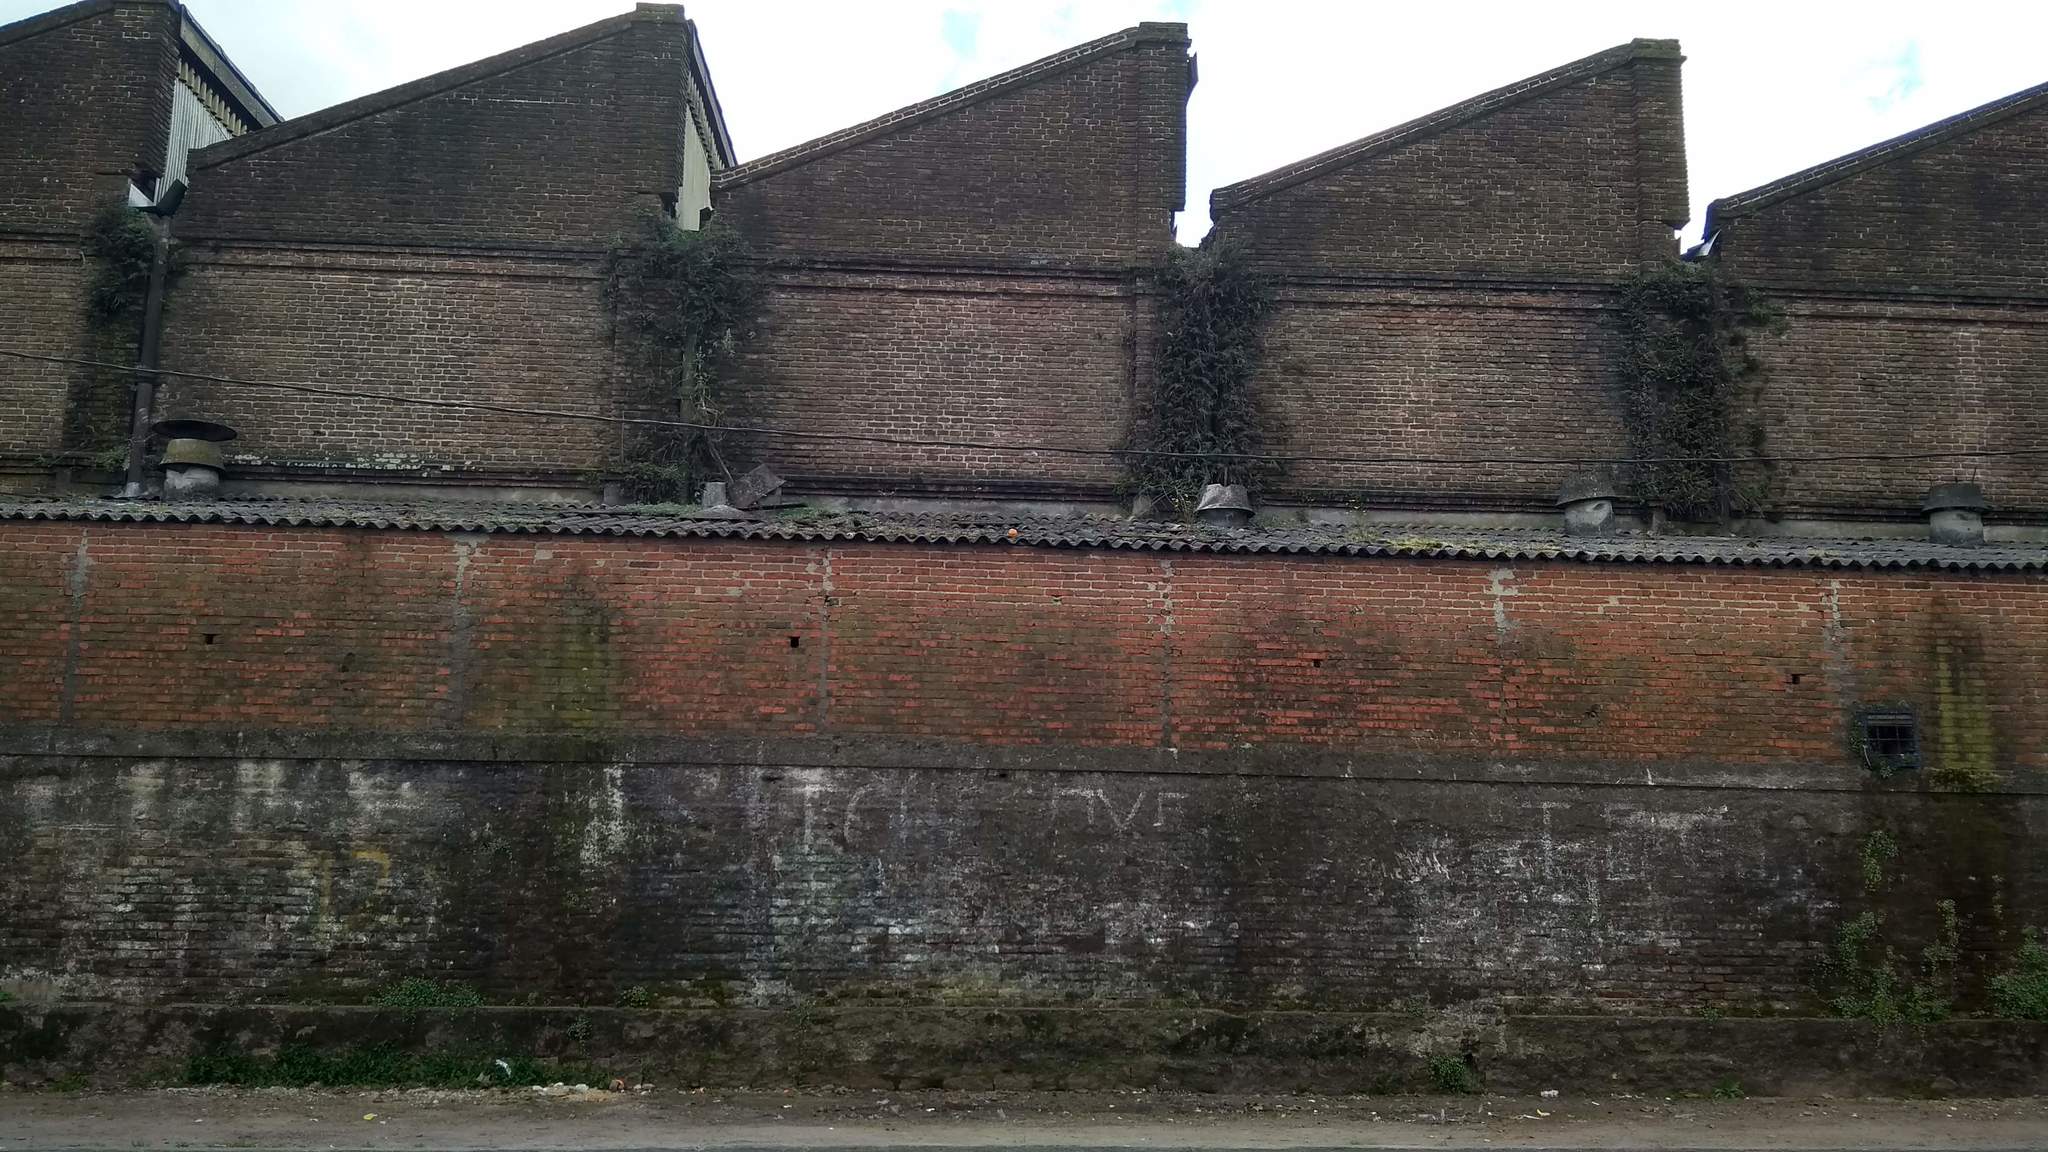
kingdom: Plantae
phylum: Tracheophyta
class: Magnoliopsida
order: Lamiales
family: Plantaginaceae
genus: Cymbalaria
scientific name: Cymbalaria muralis
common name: Ivy-leaved toadflax
